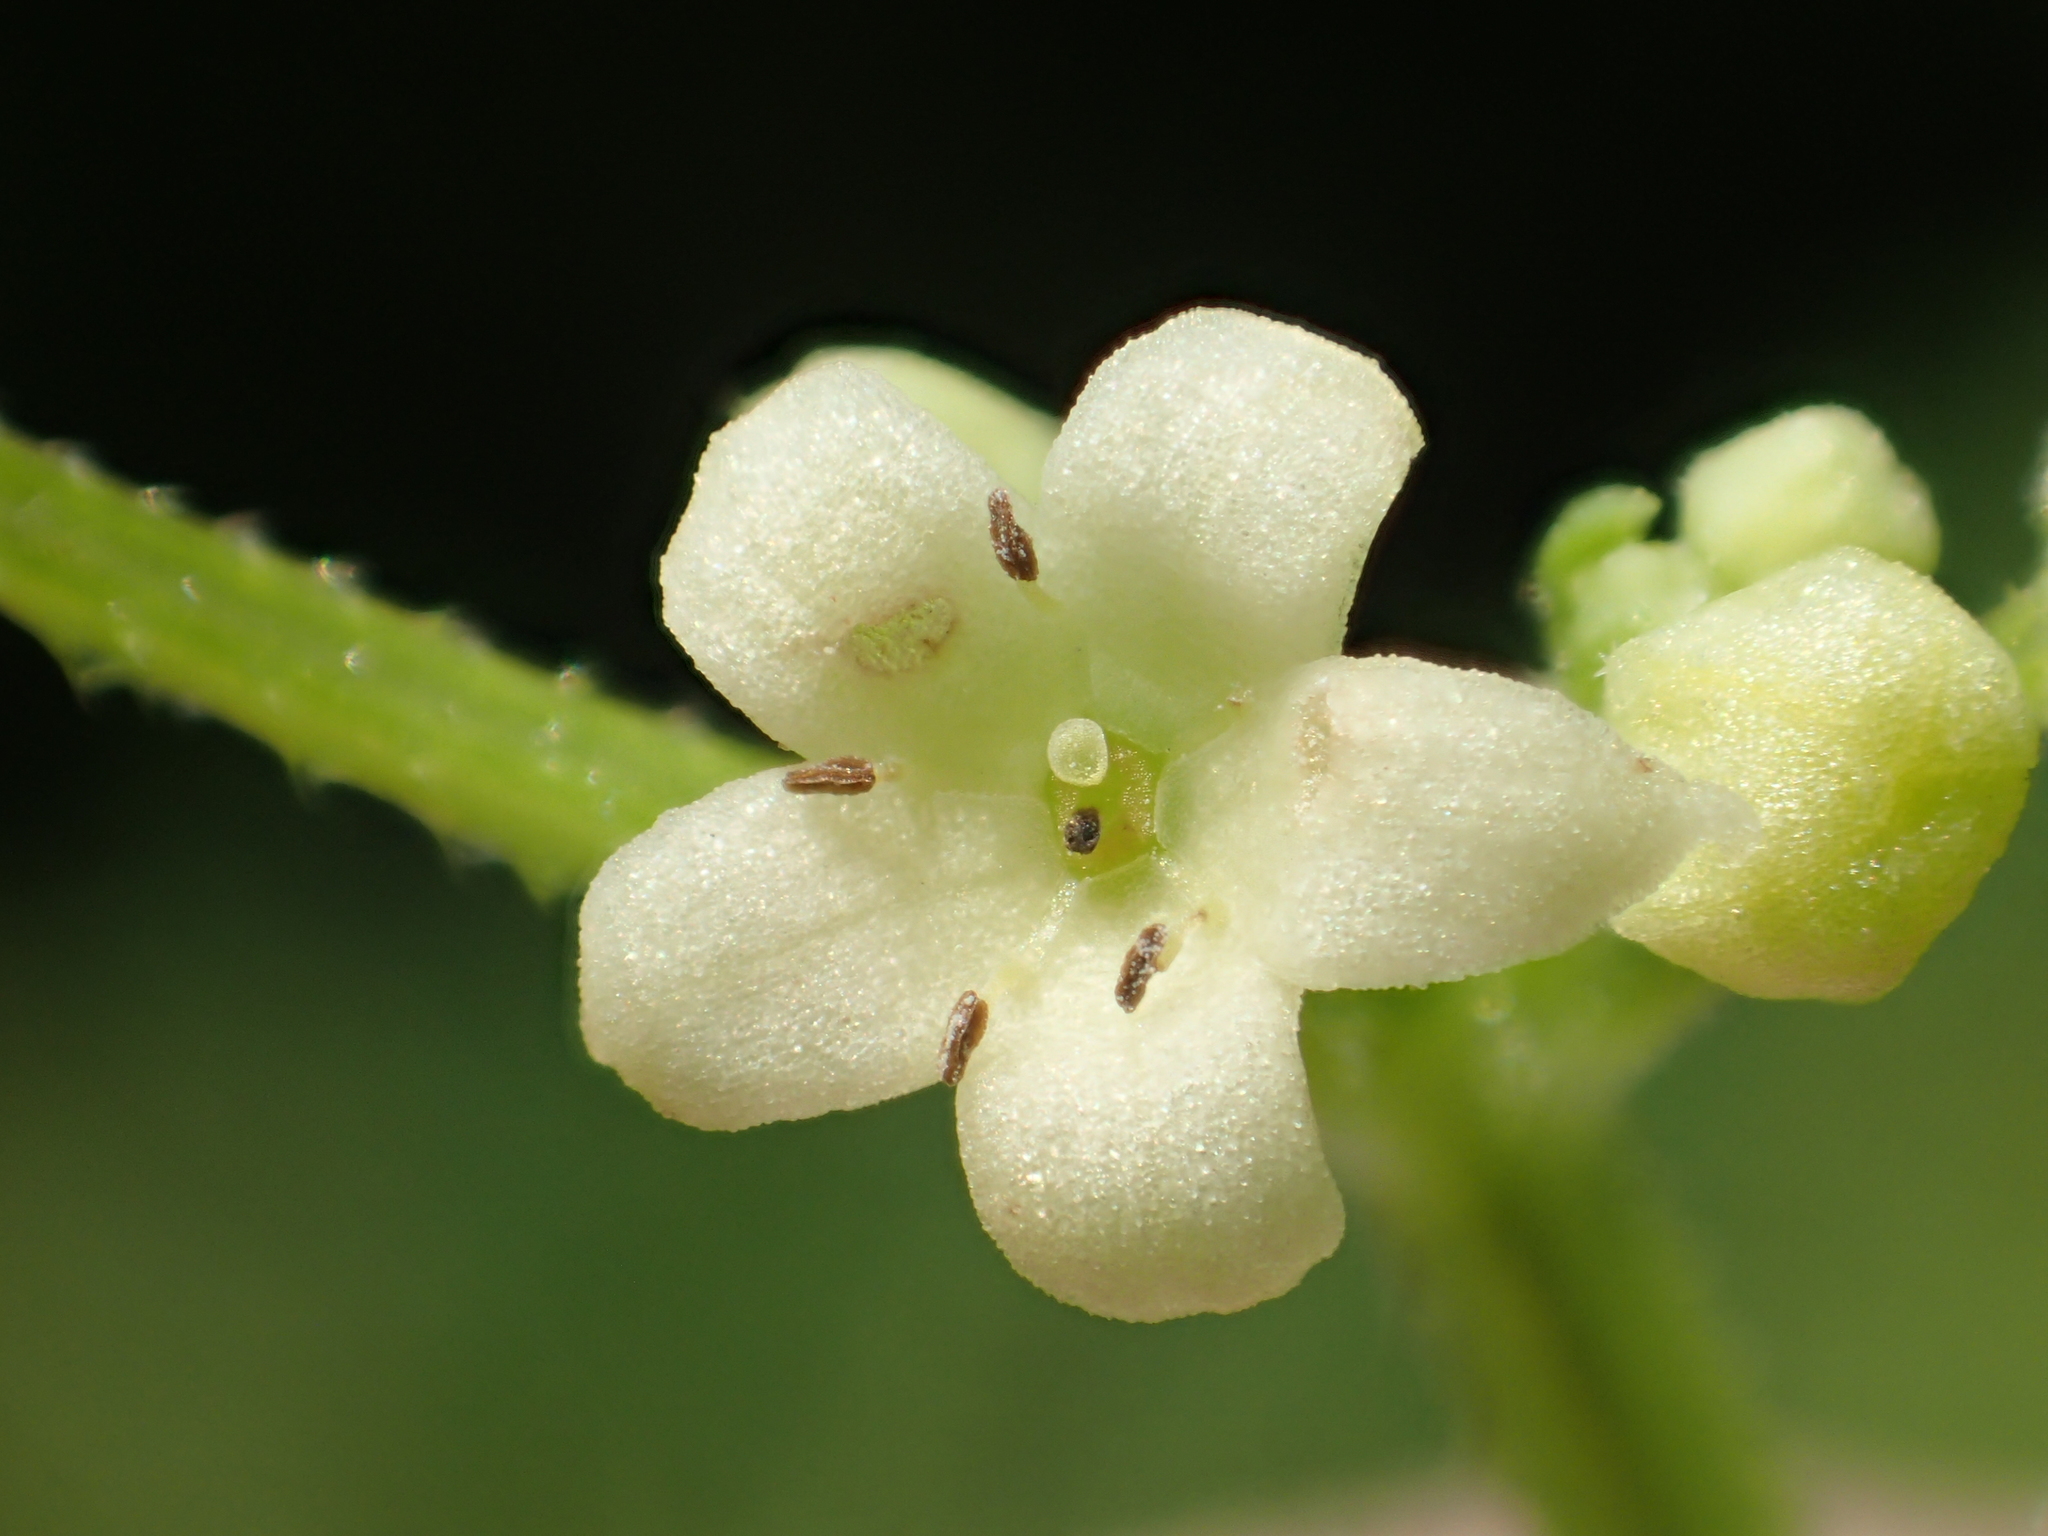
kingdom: Plantae
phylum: Tracheophyta
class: Magnoliopsida
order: Gentianales
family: Rubiaceae
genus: Rubia
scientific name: Rubia argyi
